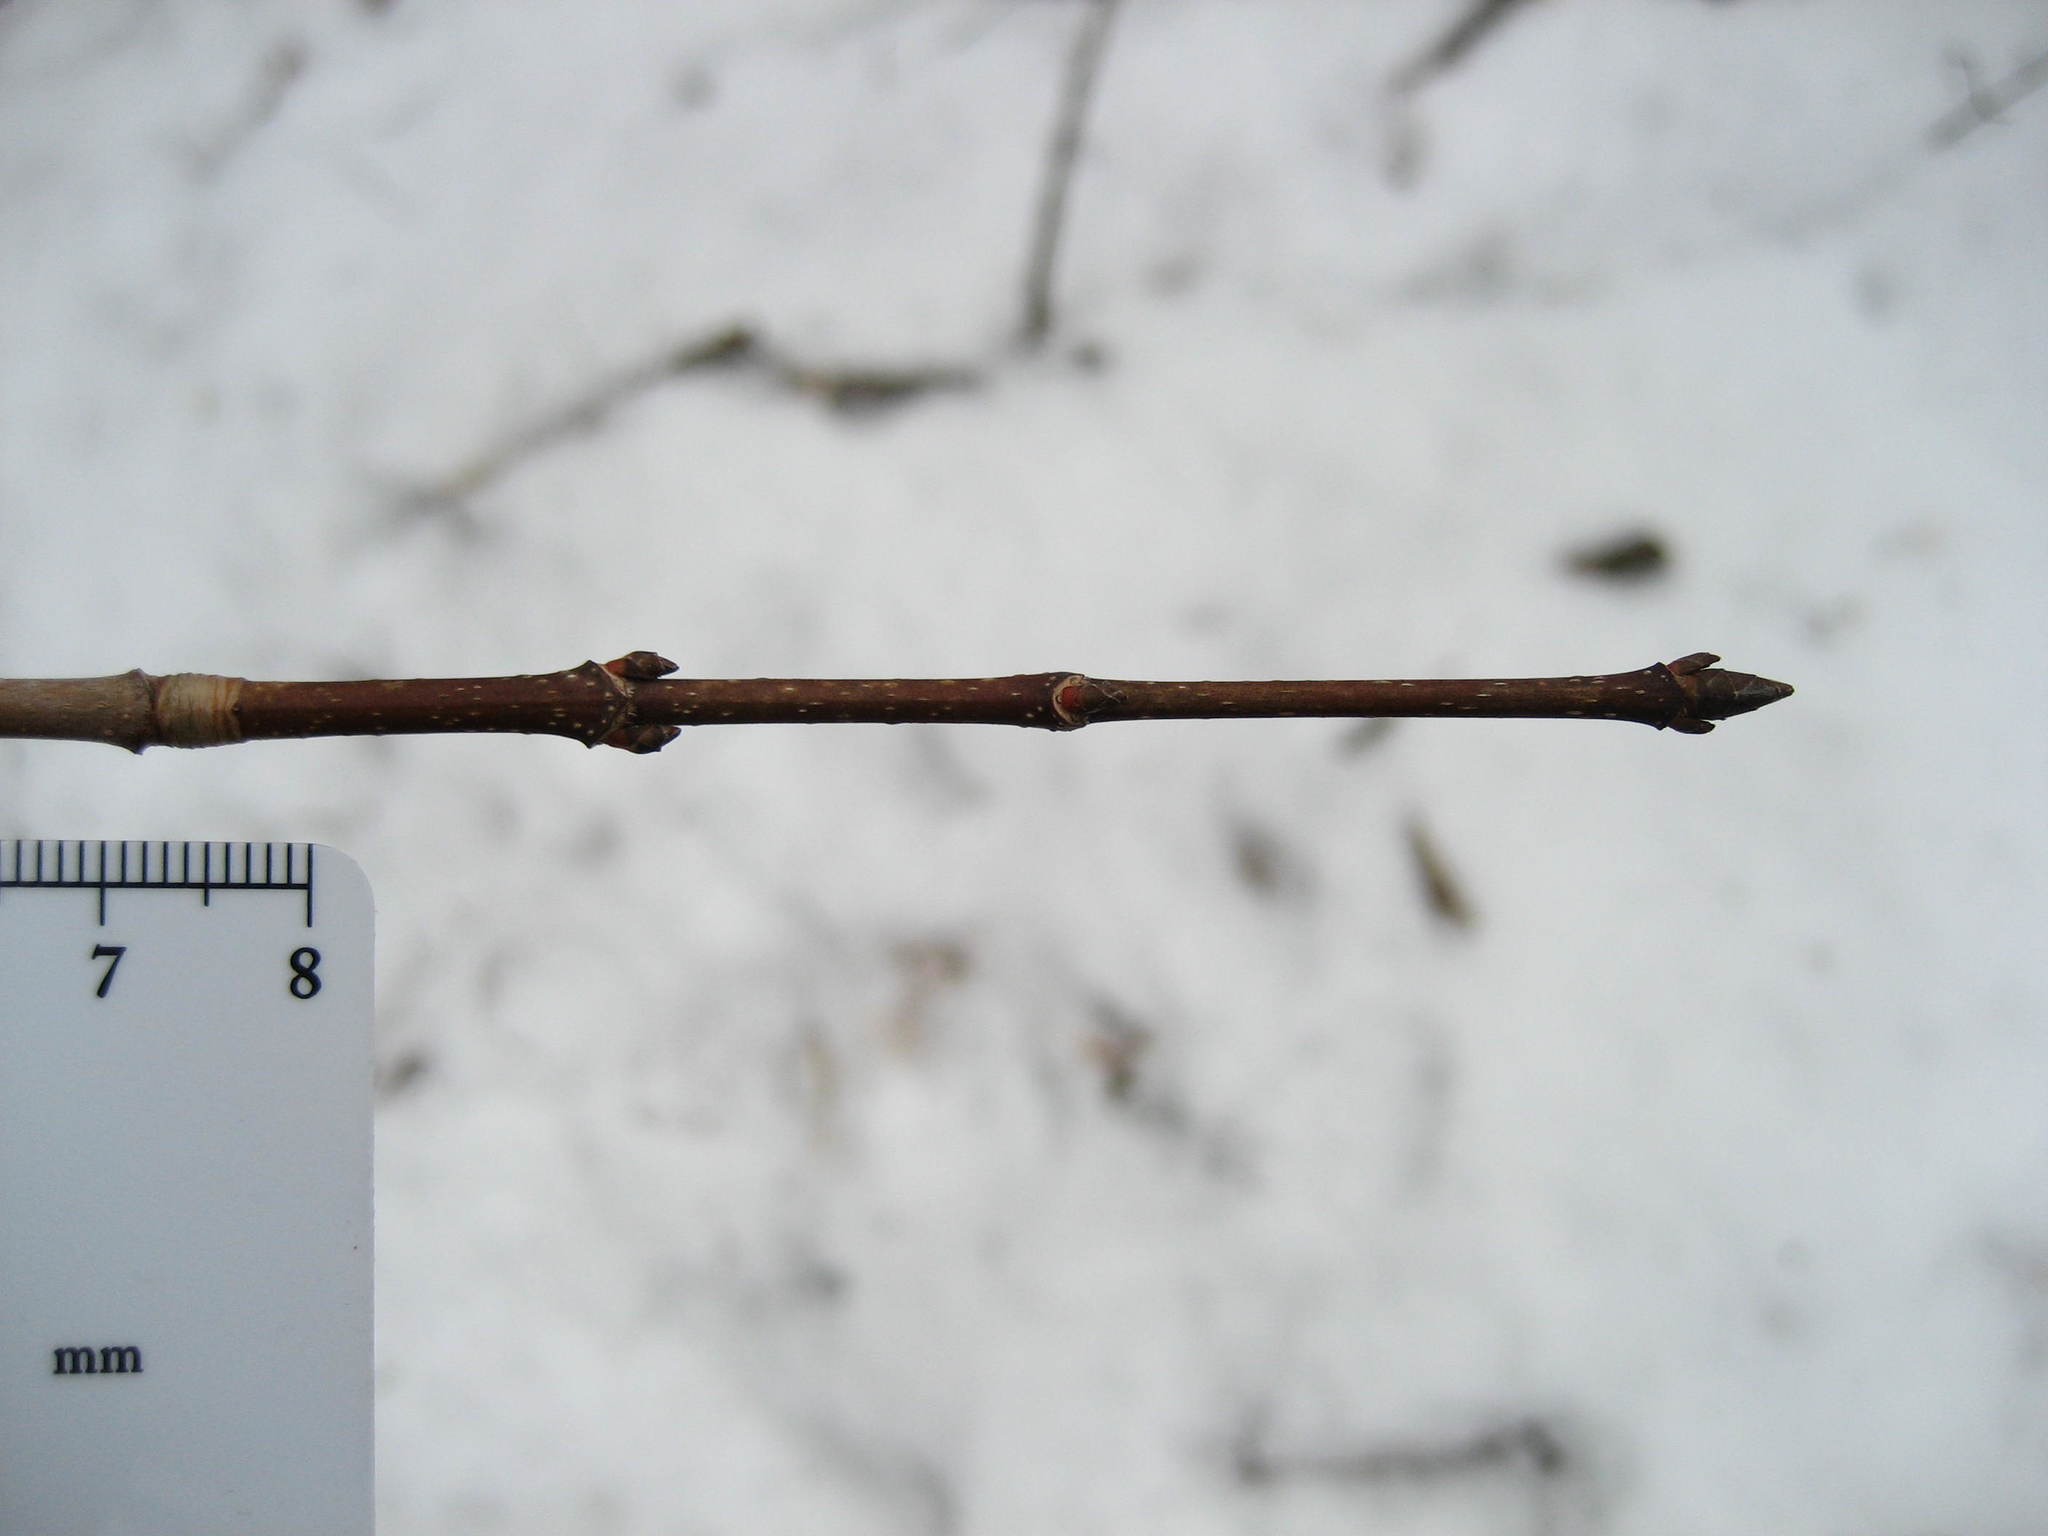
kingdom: Plantae
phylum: Tracheophyta
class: Magnoliopsida
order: Sapindales
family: Sapindaceae
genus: Acer
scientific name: Acer saccharum
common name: Sugar maple
